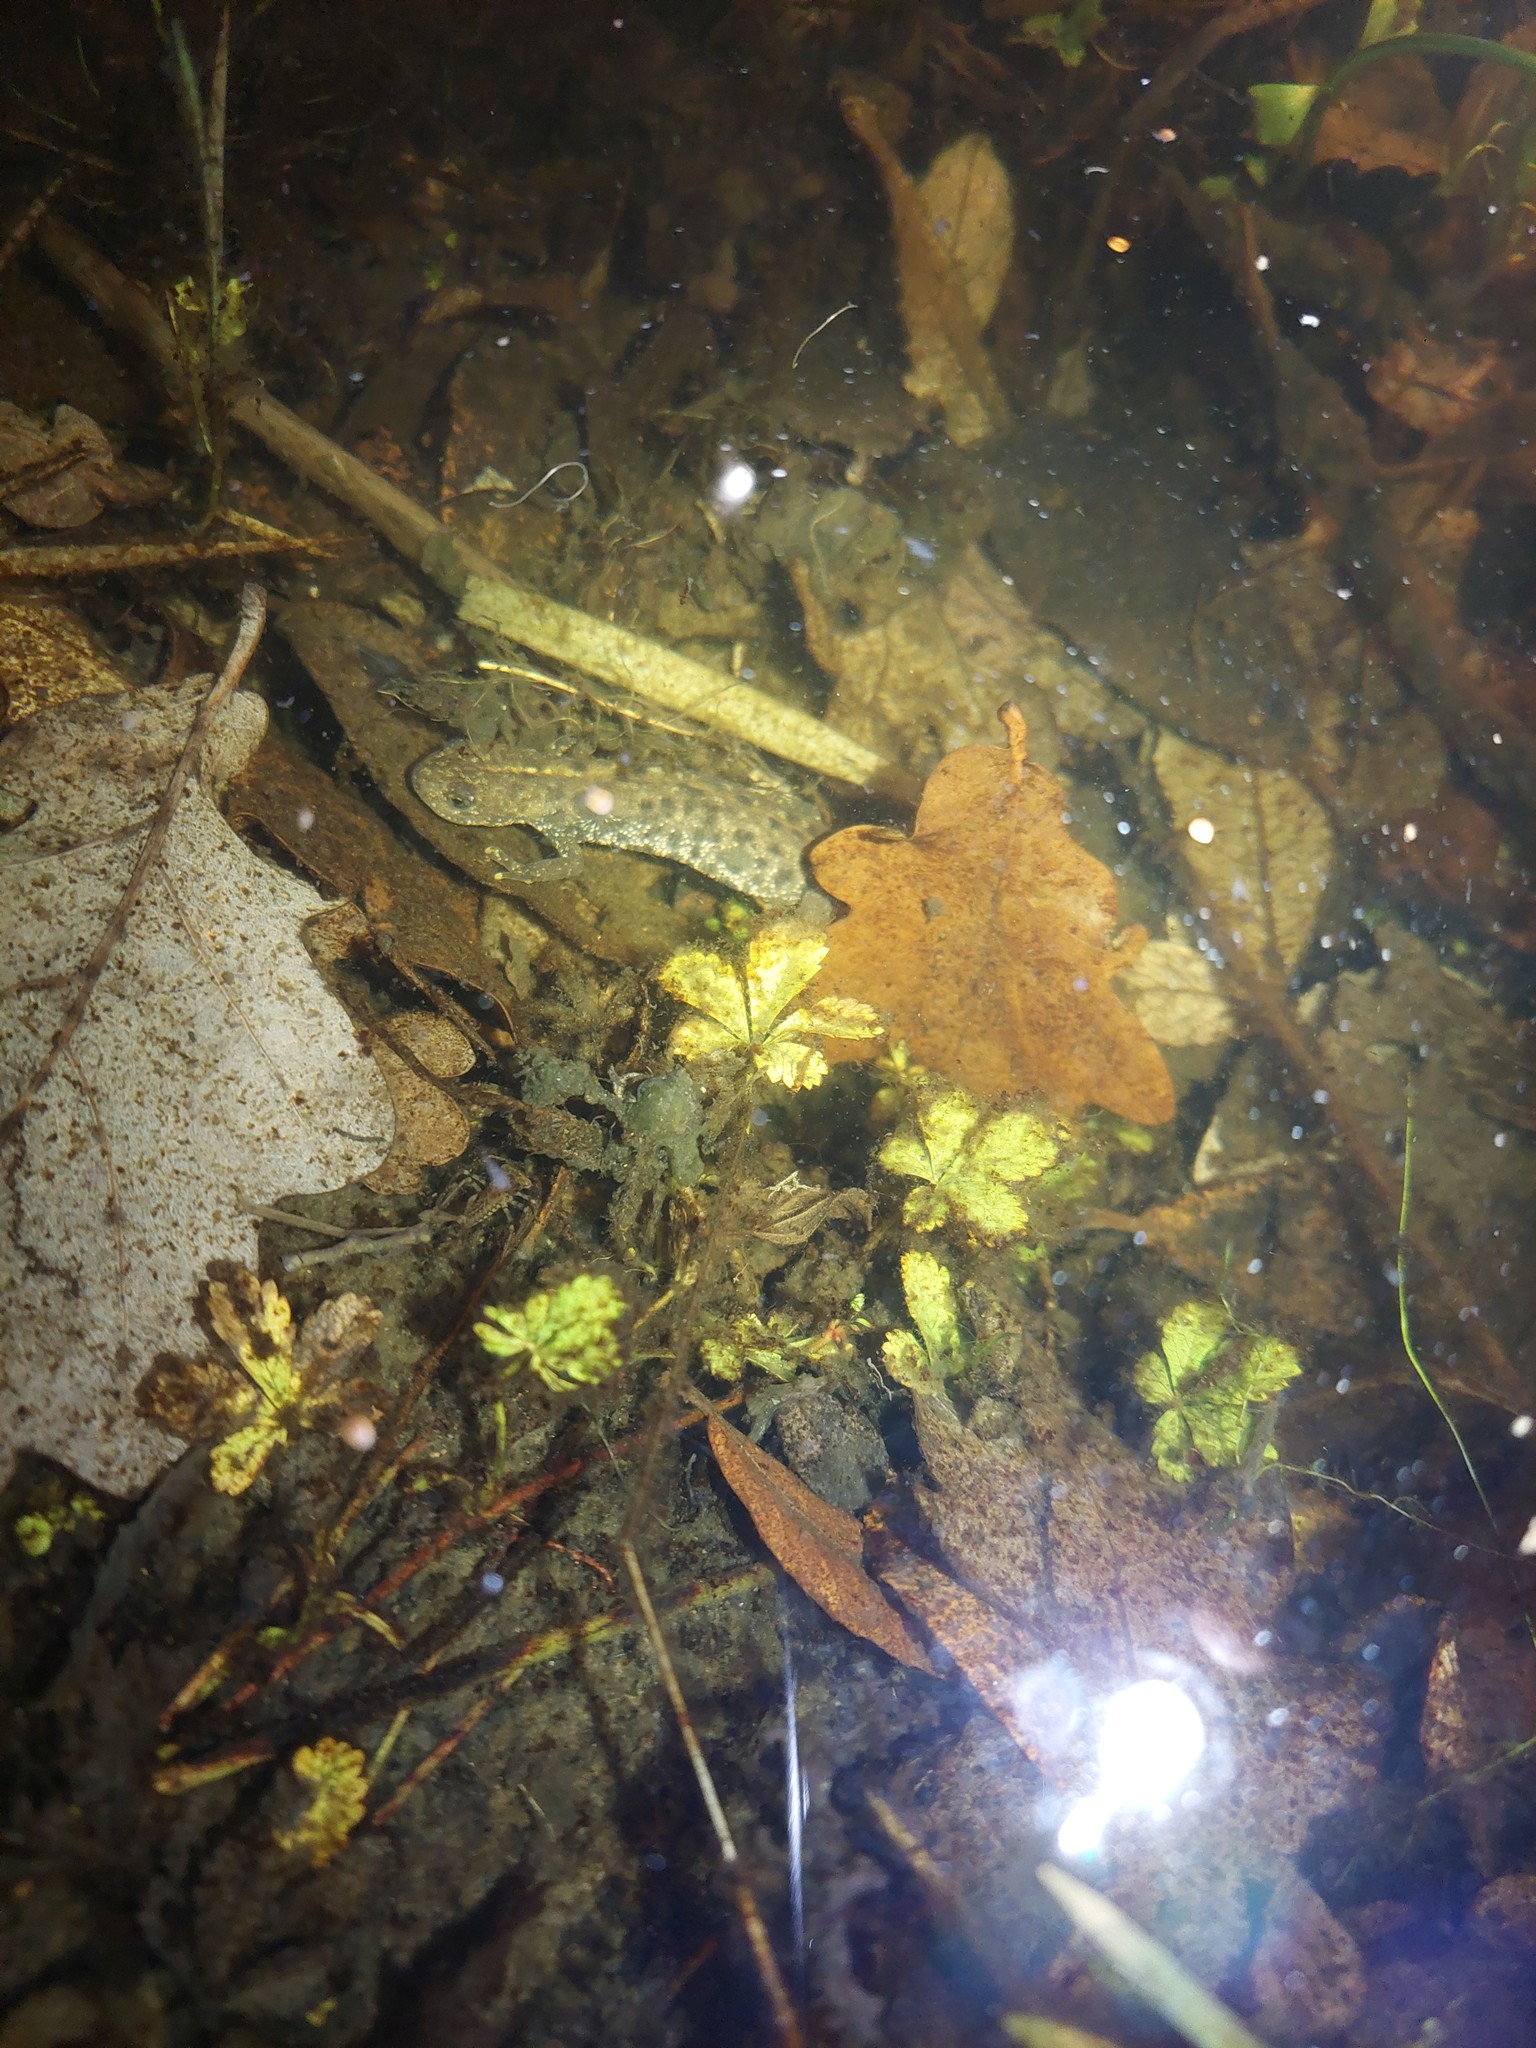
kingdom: Animalia
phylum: Chordata
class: Amphibia
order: Caudata
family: Salamandridae
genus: Triturus
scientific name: Triturus cristatus
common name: Crested newt
